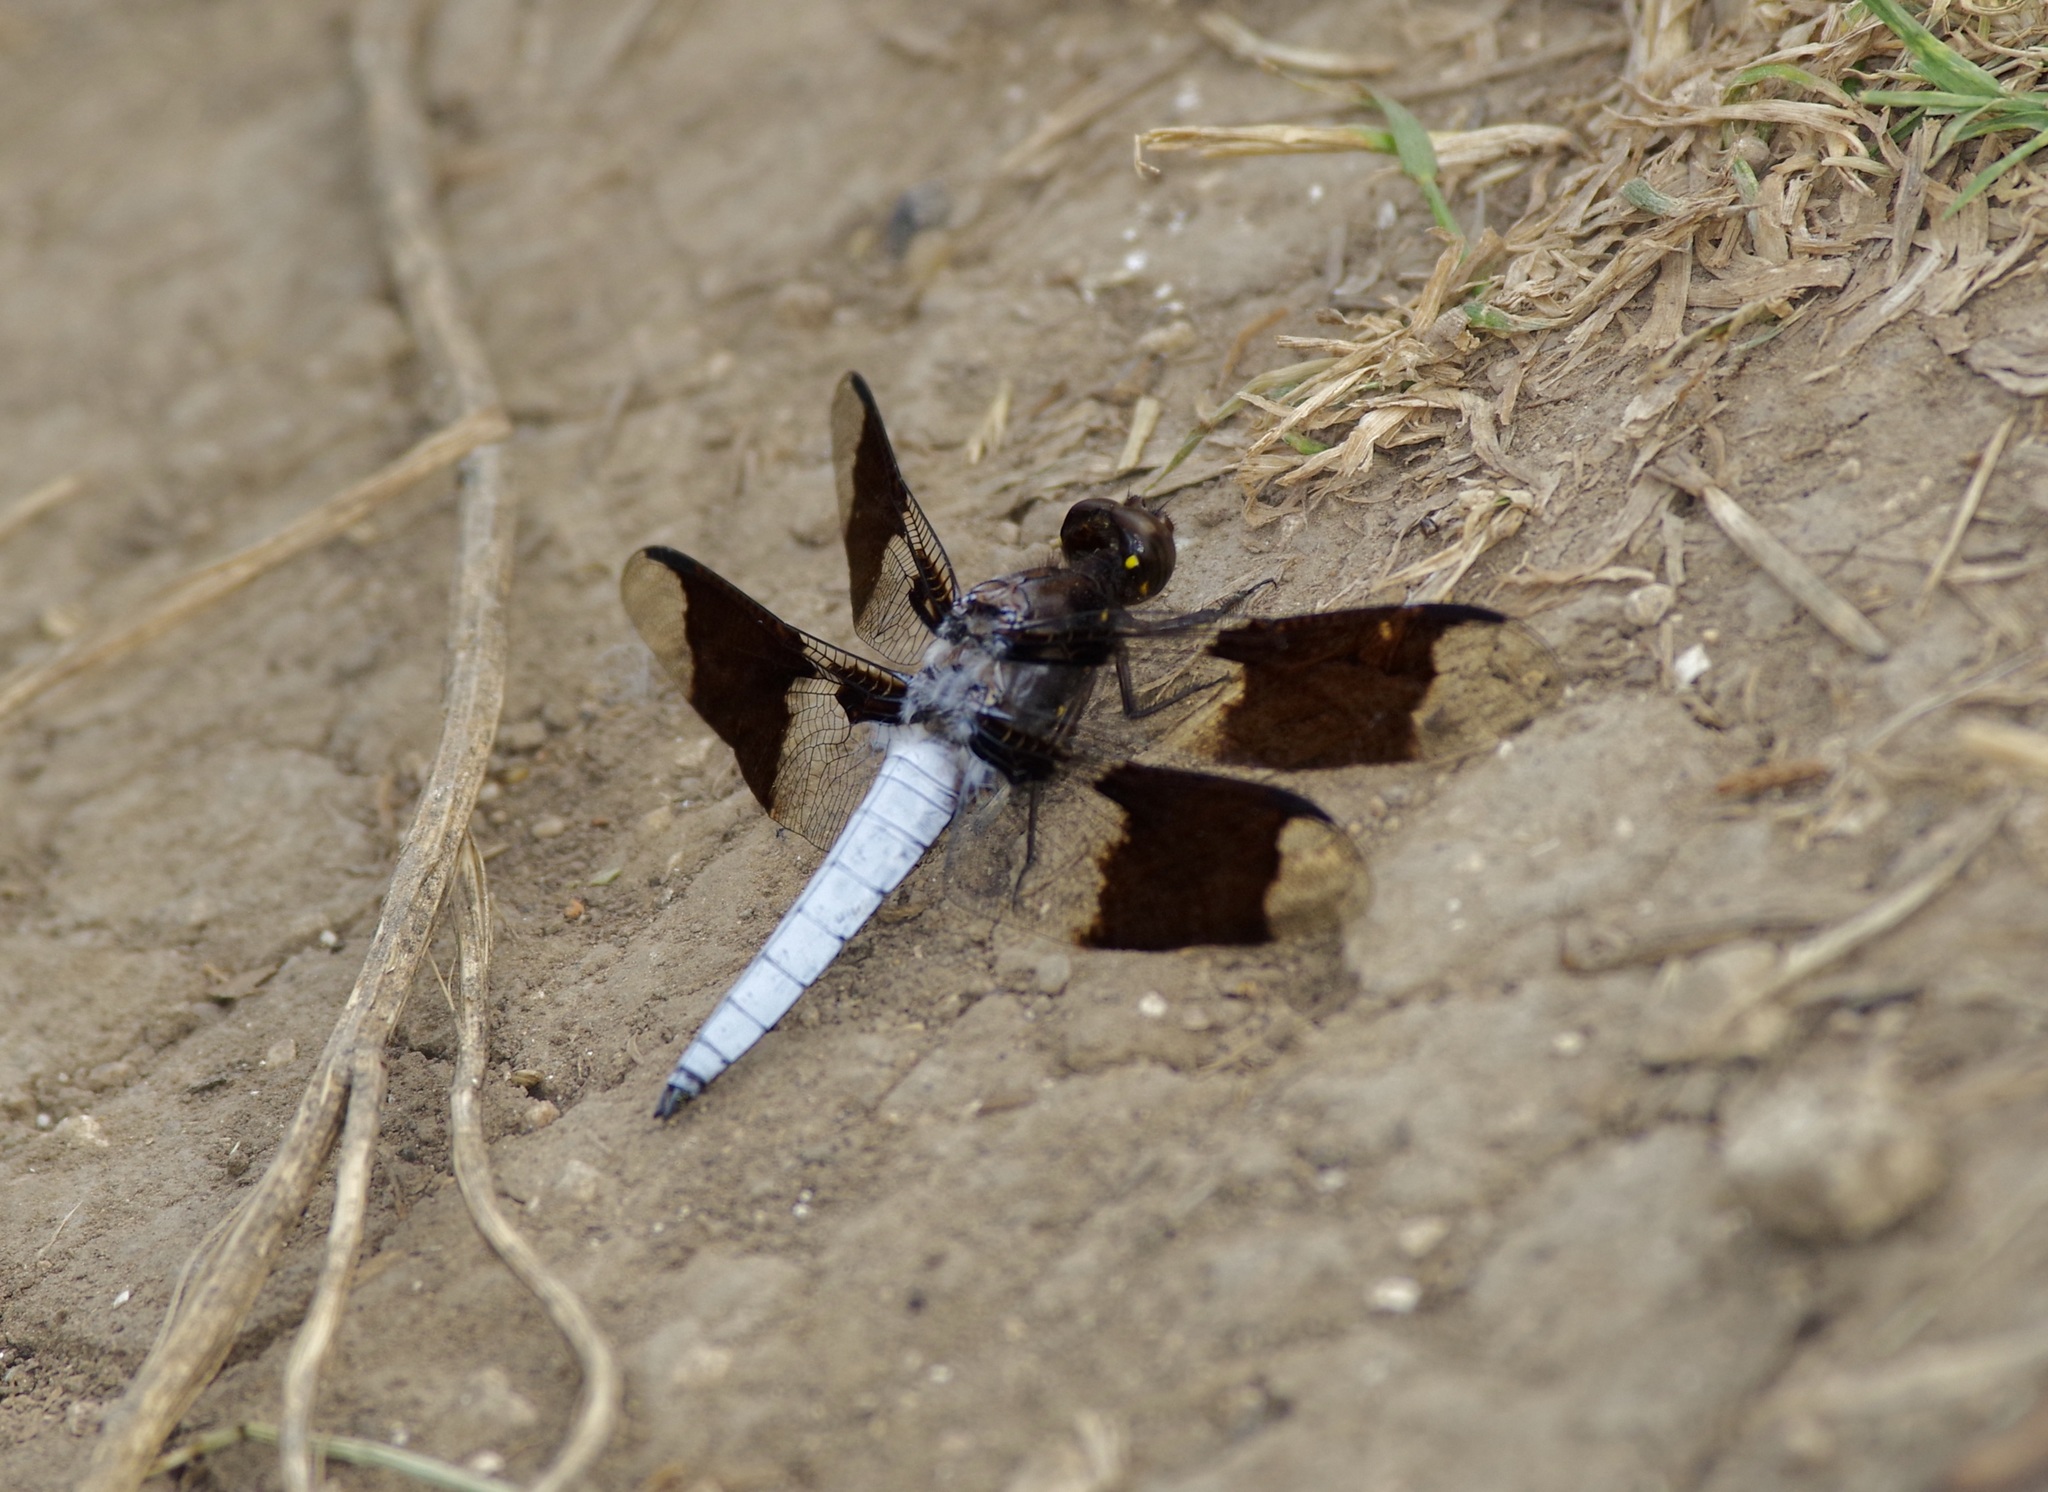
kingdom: Animalia
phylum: Arthropoda
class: Insecta
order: Odonata
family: Libellulidae
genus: Plathemis
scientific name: Plathemis lydia
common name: Common whitetail
